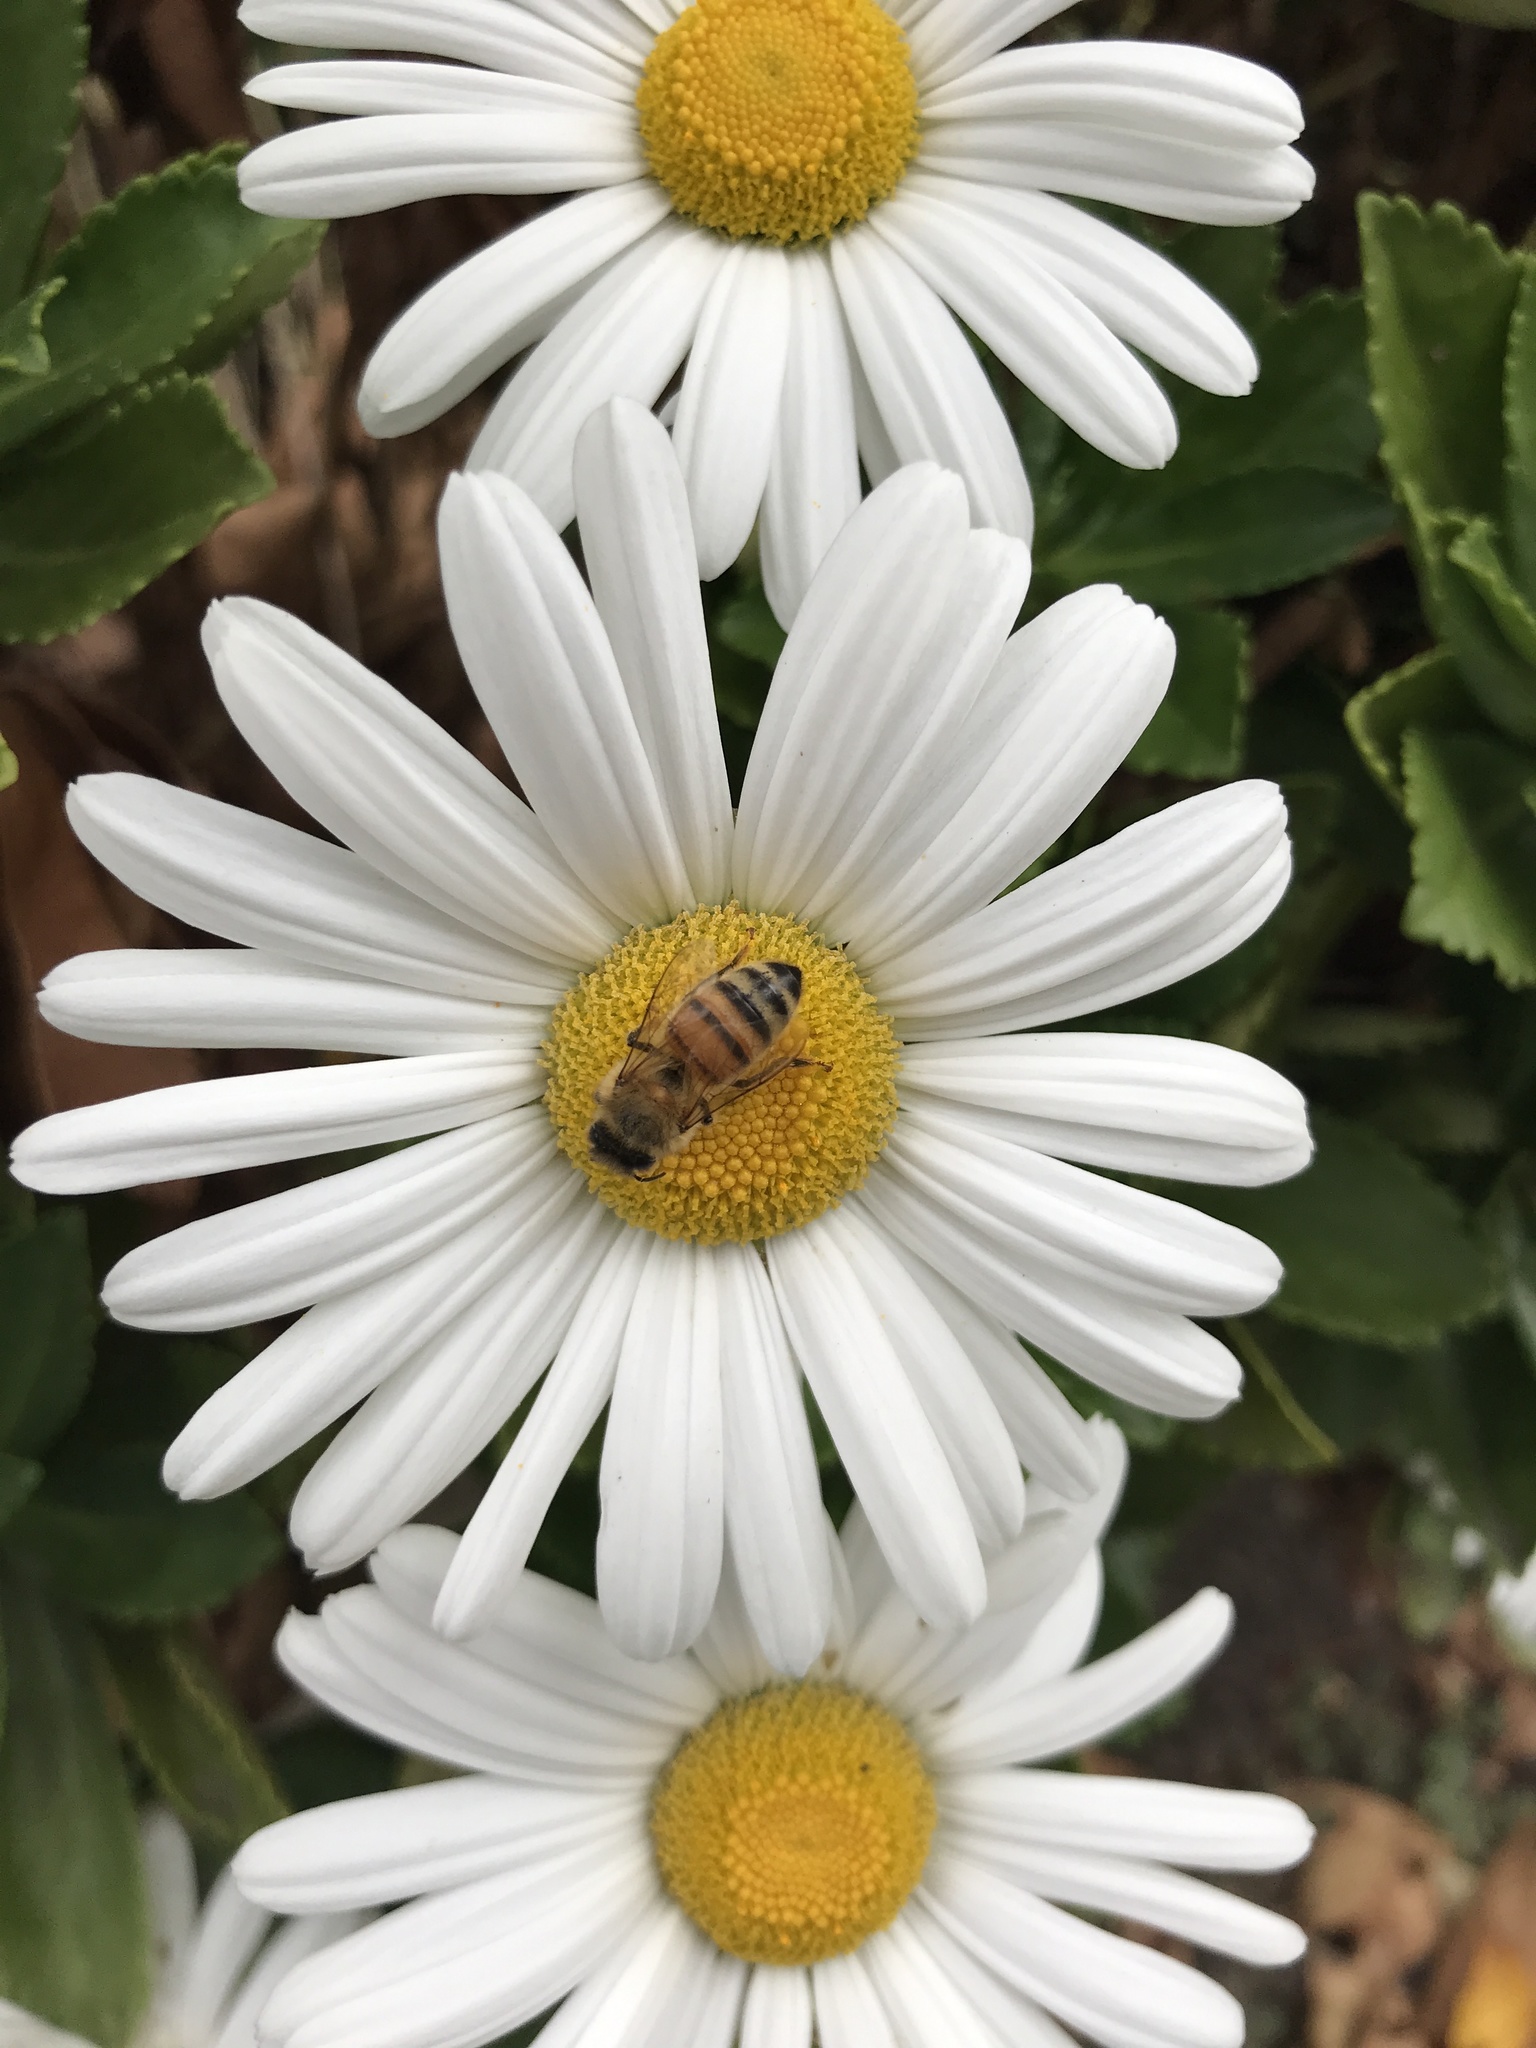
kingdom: Animalia
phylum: Arthropoda
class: Insecta
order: Hymenoptera
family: Apidae
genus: Apis
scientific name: Apis mellifera
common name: Honey bee
